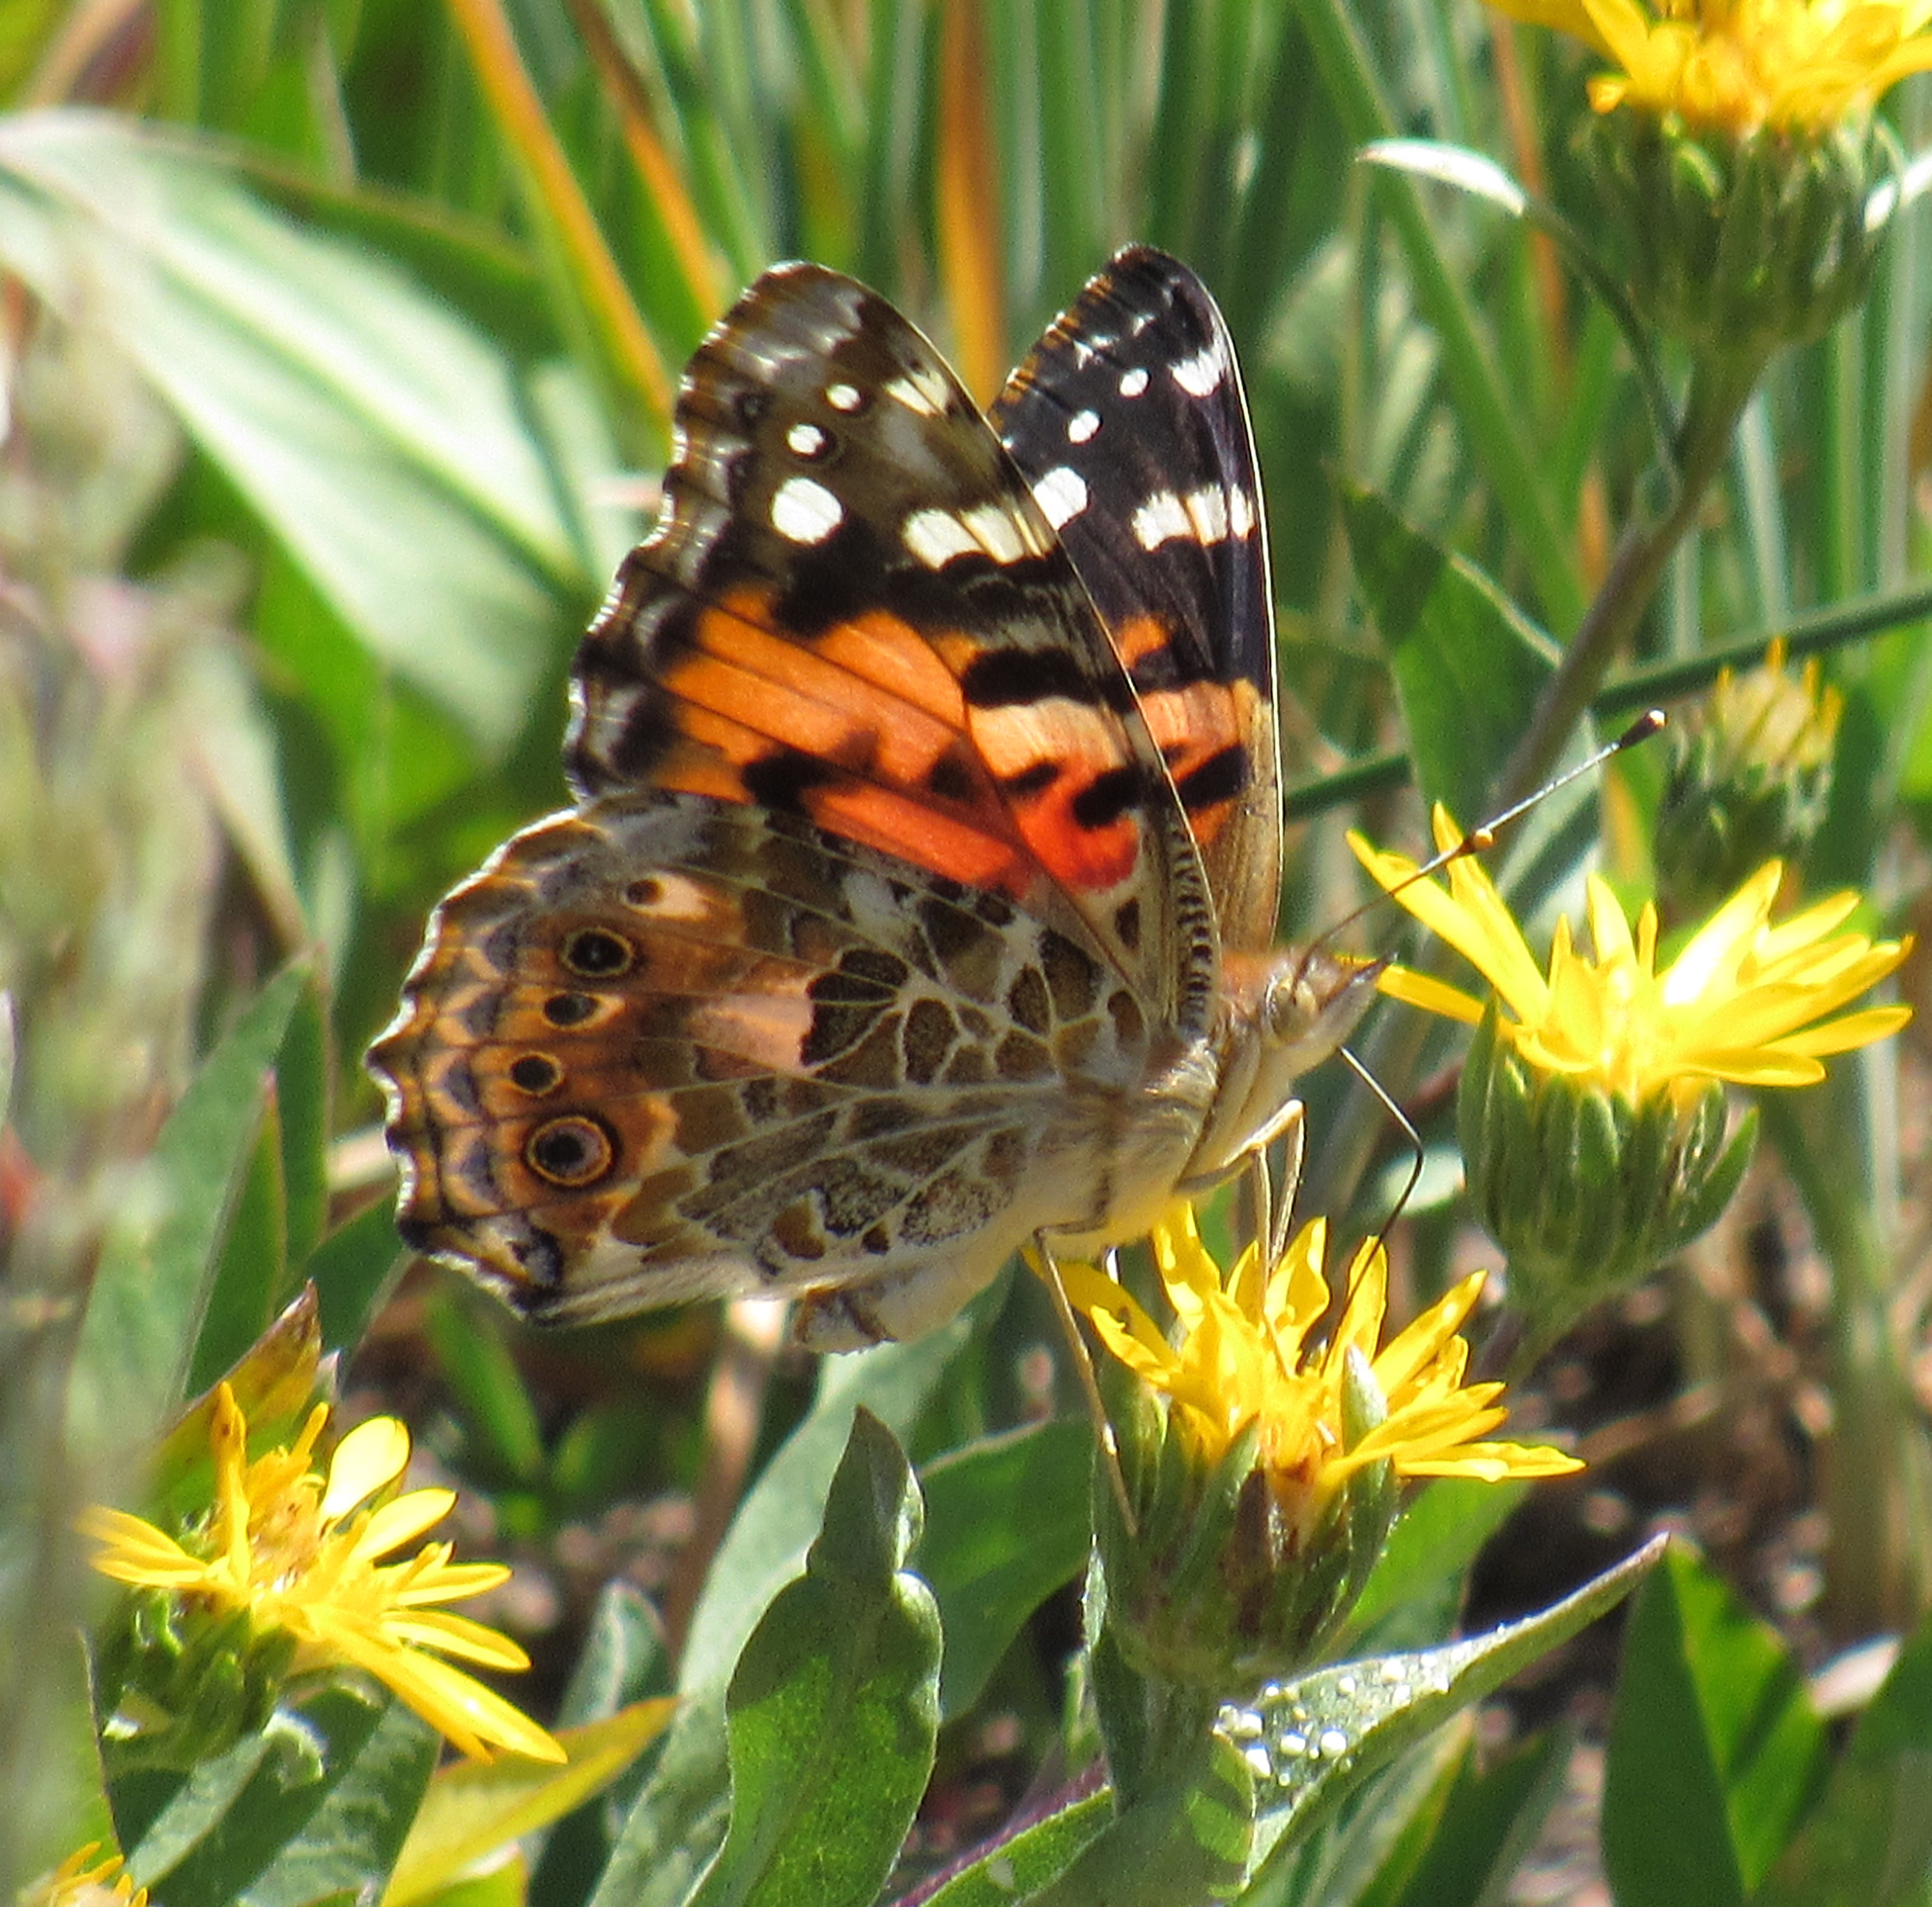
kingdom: Animalia
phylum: Arthropoda
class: Insecta
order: Lepidoptera
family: Nymphalidae
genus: Vanessa
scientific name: Vanessa cardui
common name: Painted lady
